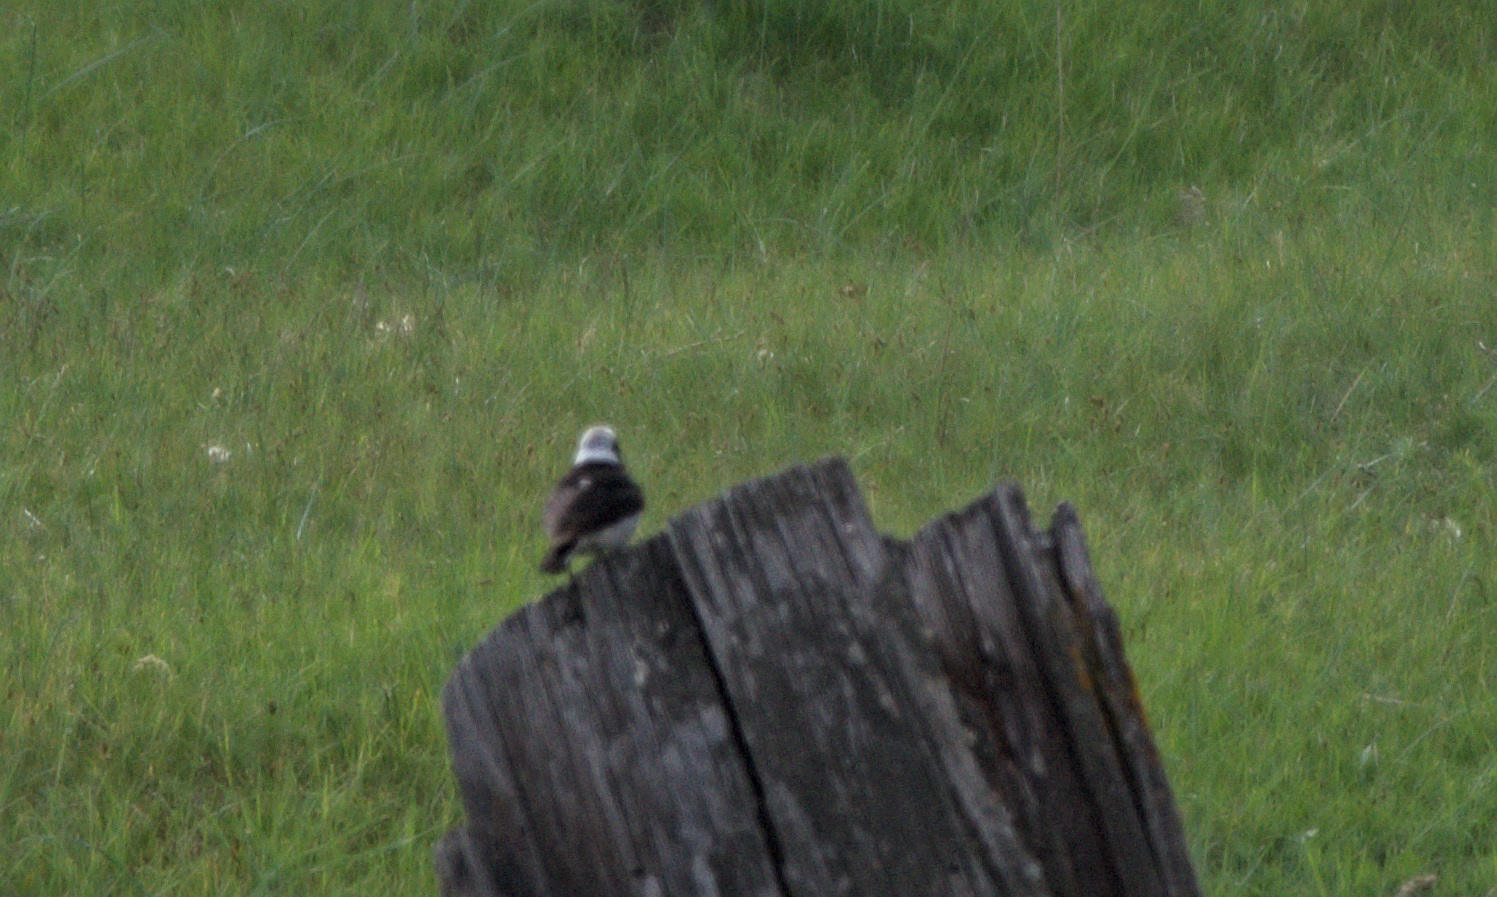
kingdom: Animalia
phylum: Chordata
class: Aves
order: Passeriformes
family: Muscicapidae
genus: Oenanthe
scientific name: Oenanthe pleschanka
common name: Pied wheatear
